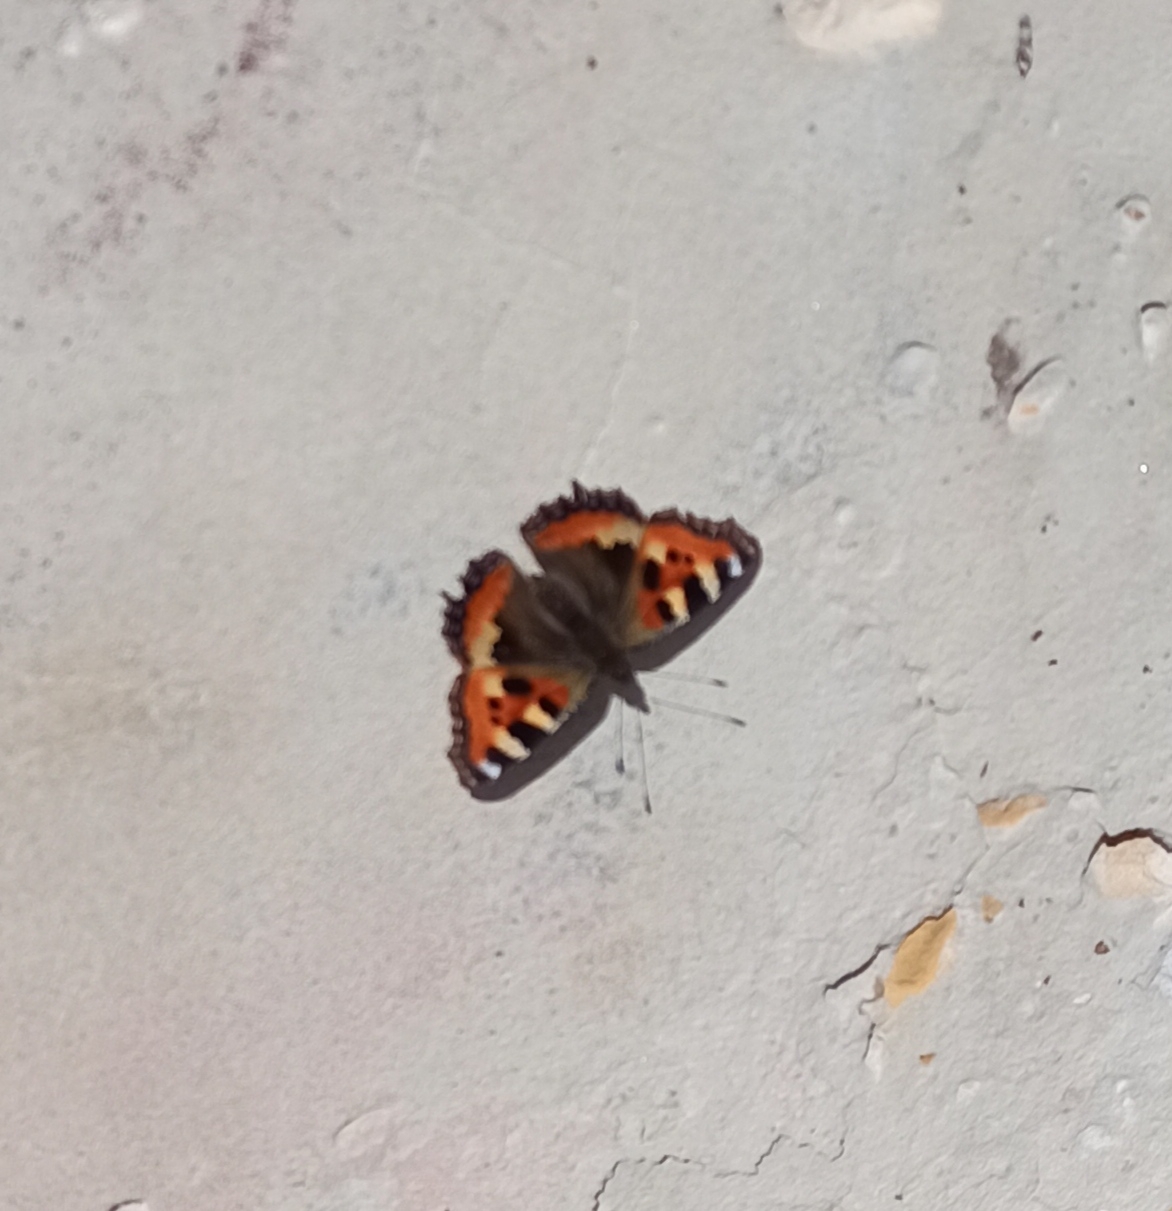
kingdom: Animalia
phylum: Arthropoda
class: Insecta
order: Lepidoptera
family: Nymphalidae
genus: Aglais
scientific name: Aglais urticae
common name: Small tortoiseshell
